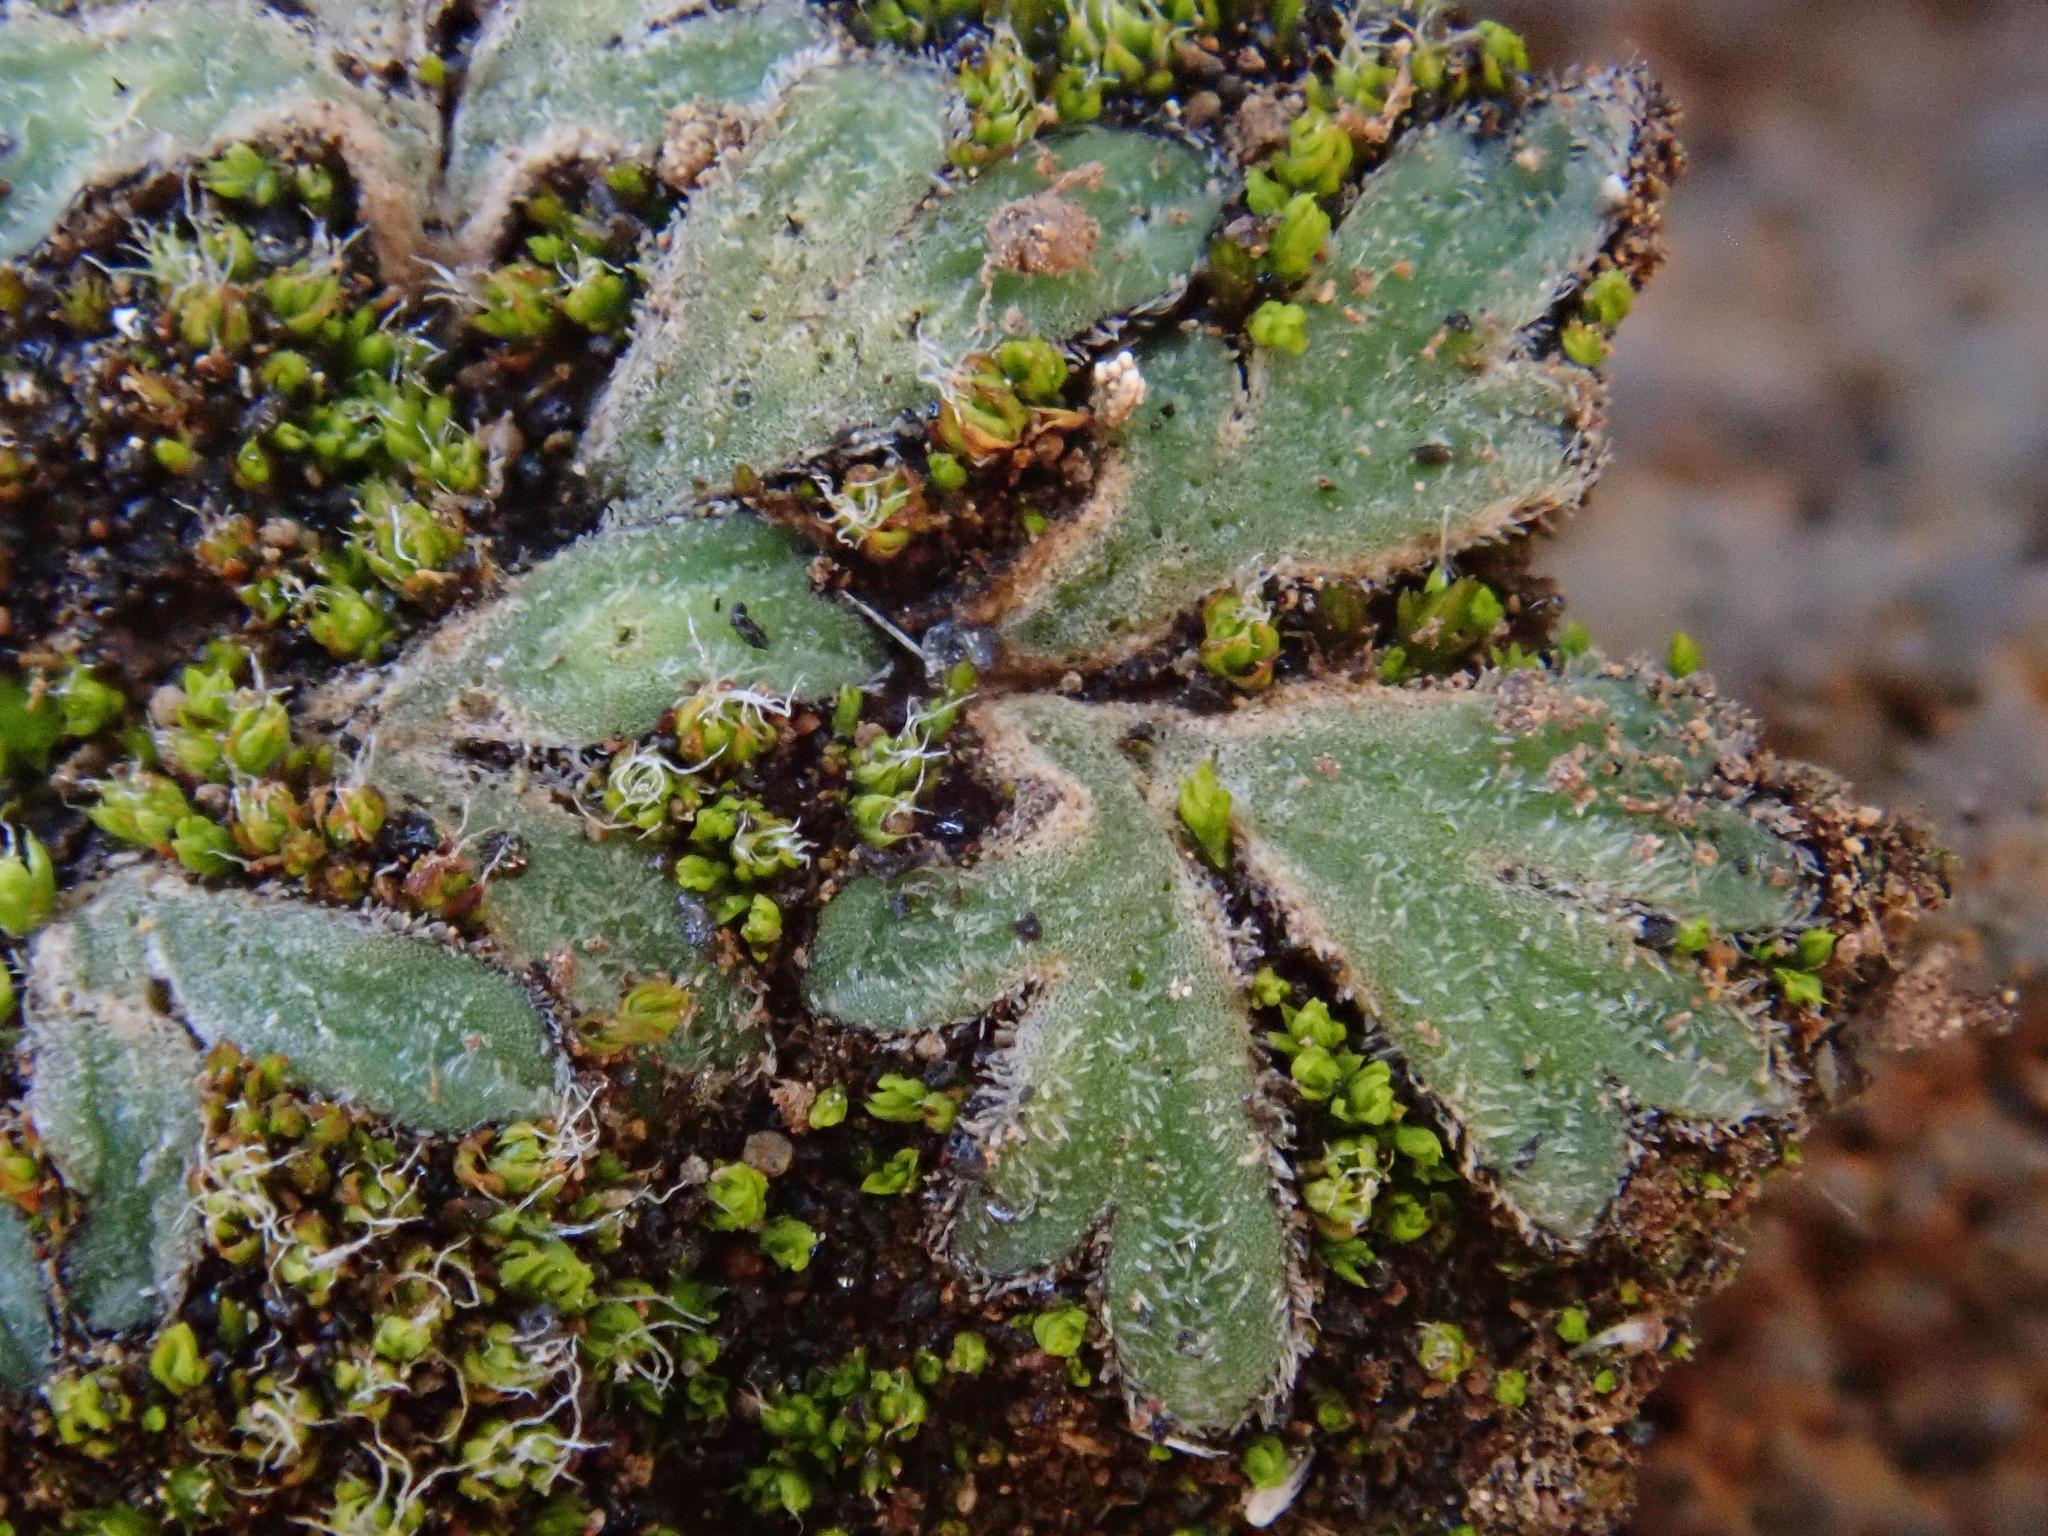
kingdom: Plantae
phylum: Marchantiophyta
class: Marchantiopsida
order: Marchantiales
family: Ricciaceae
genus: Riccia
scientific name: Riccia atromarginata
